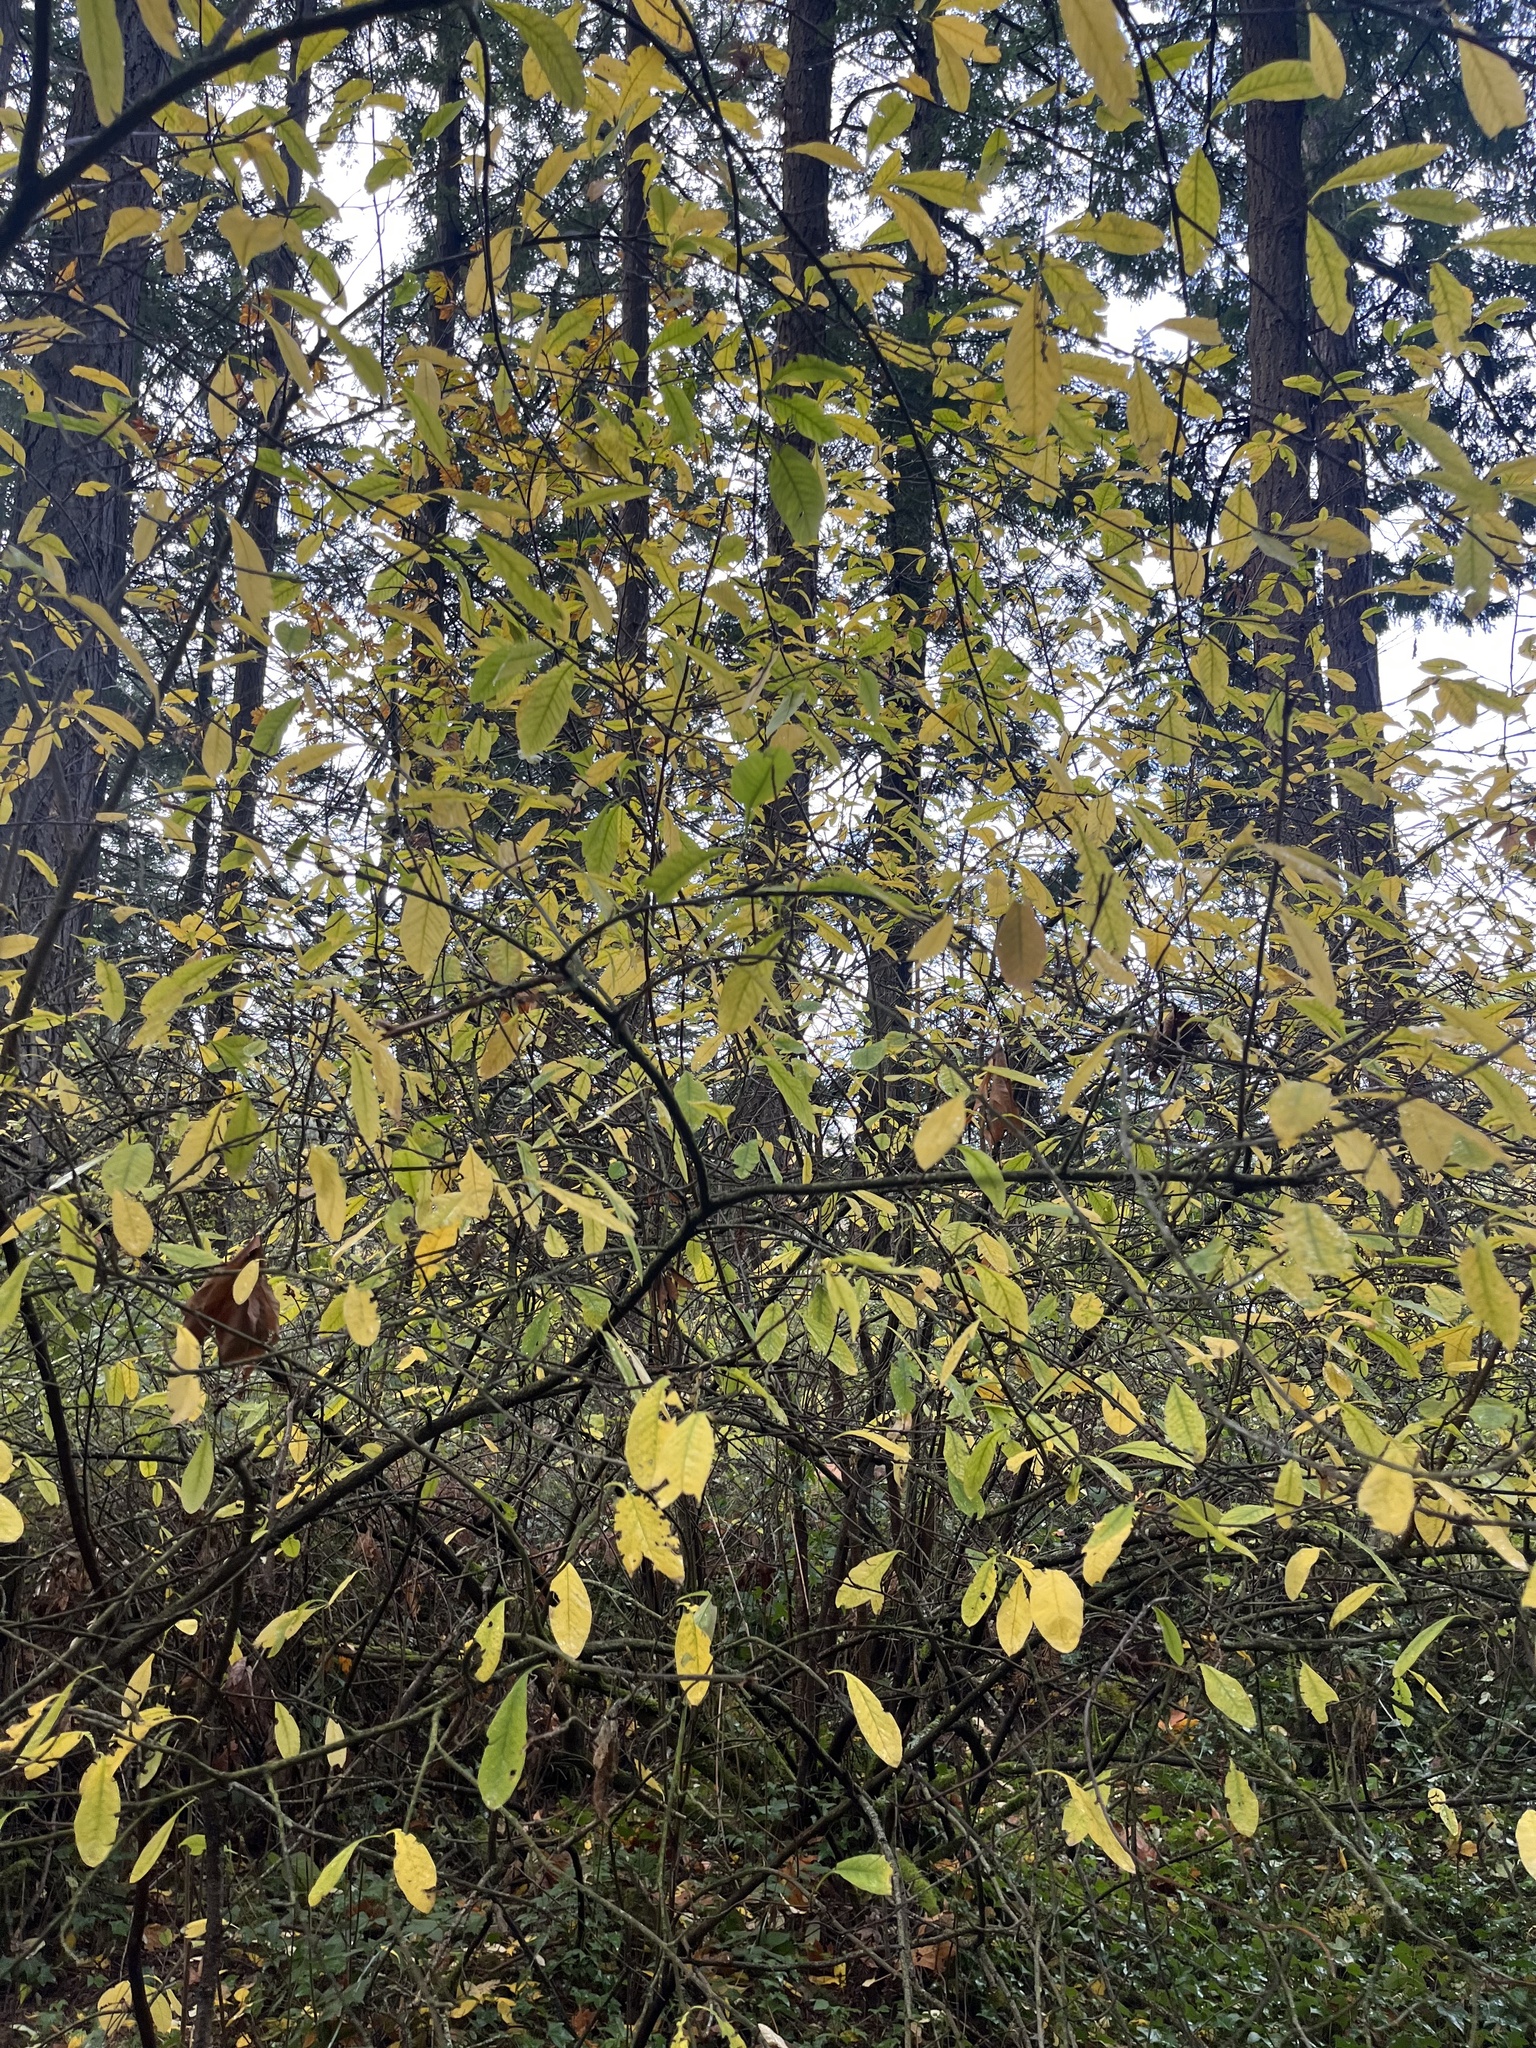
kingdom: Plantae
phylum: Tracheophyta
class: Magnoliopsida
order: Rosales
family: Rosaceae
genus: Oemleria
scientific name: Oemleria cerasiformis
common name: Osoberry
